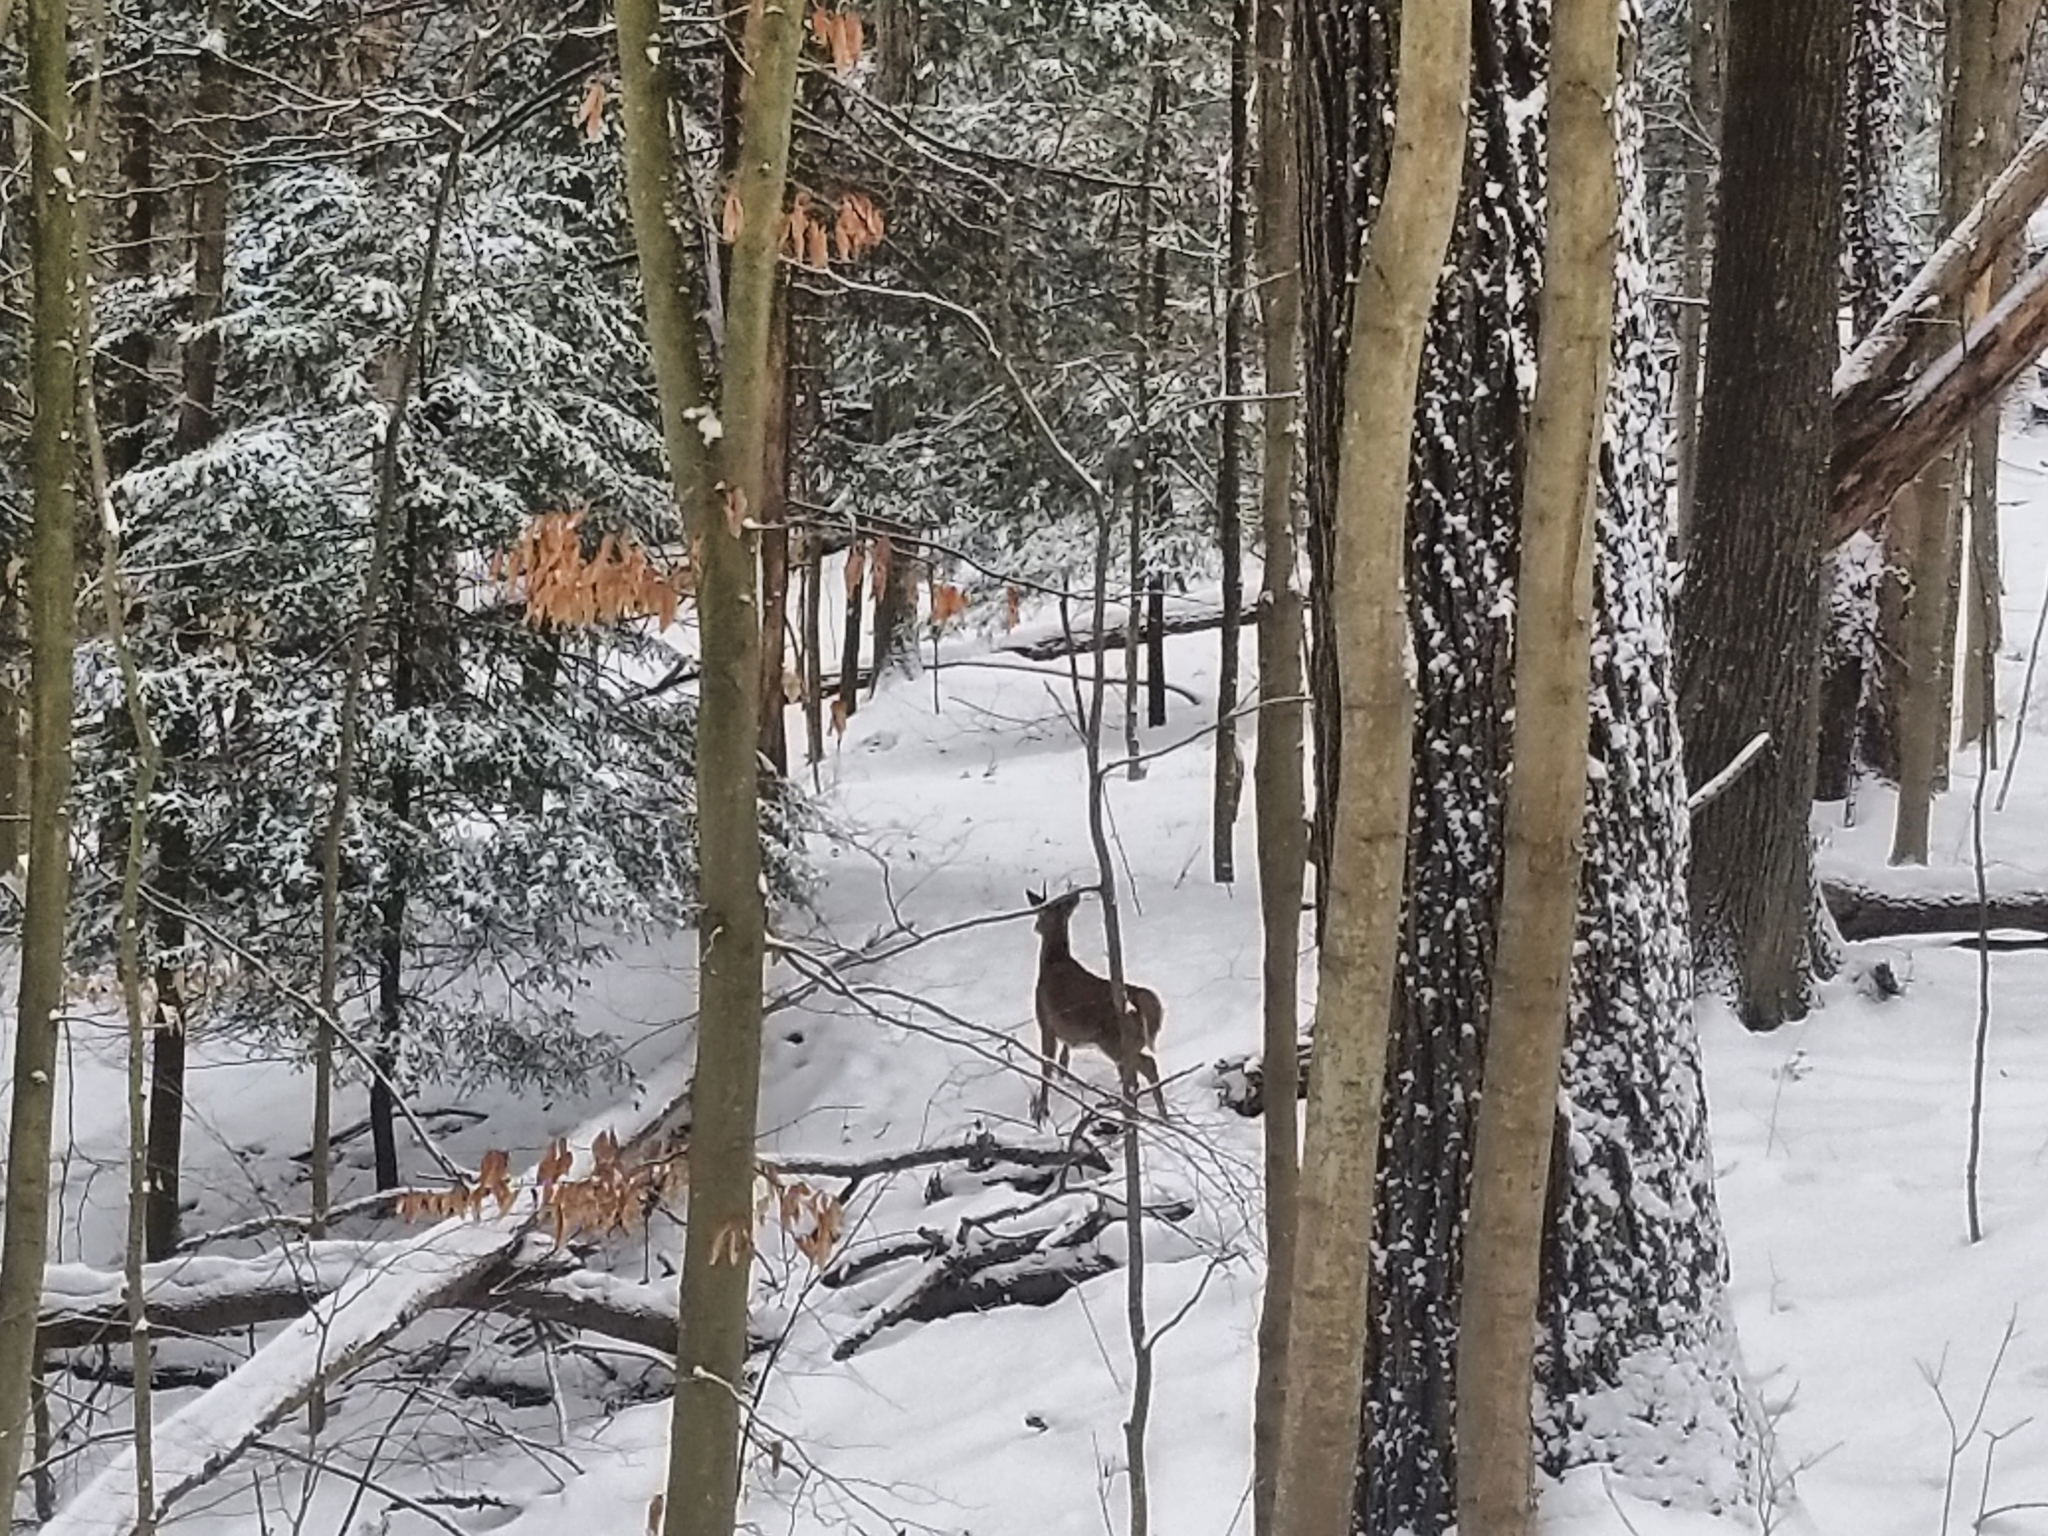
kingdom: Animalia
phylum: Chordata
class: Mammalia
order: Artiodactyla
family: Cervidae
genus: Odocoileus
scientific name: Odocoileus virginianus
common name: White-tailed deer
